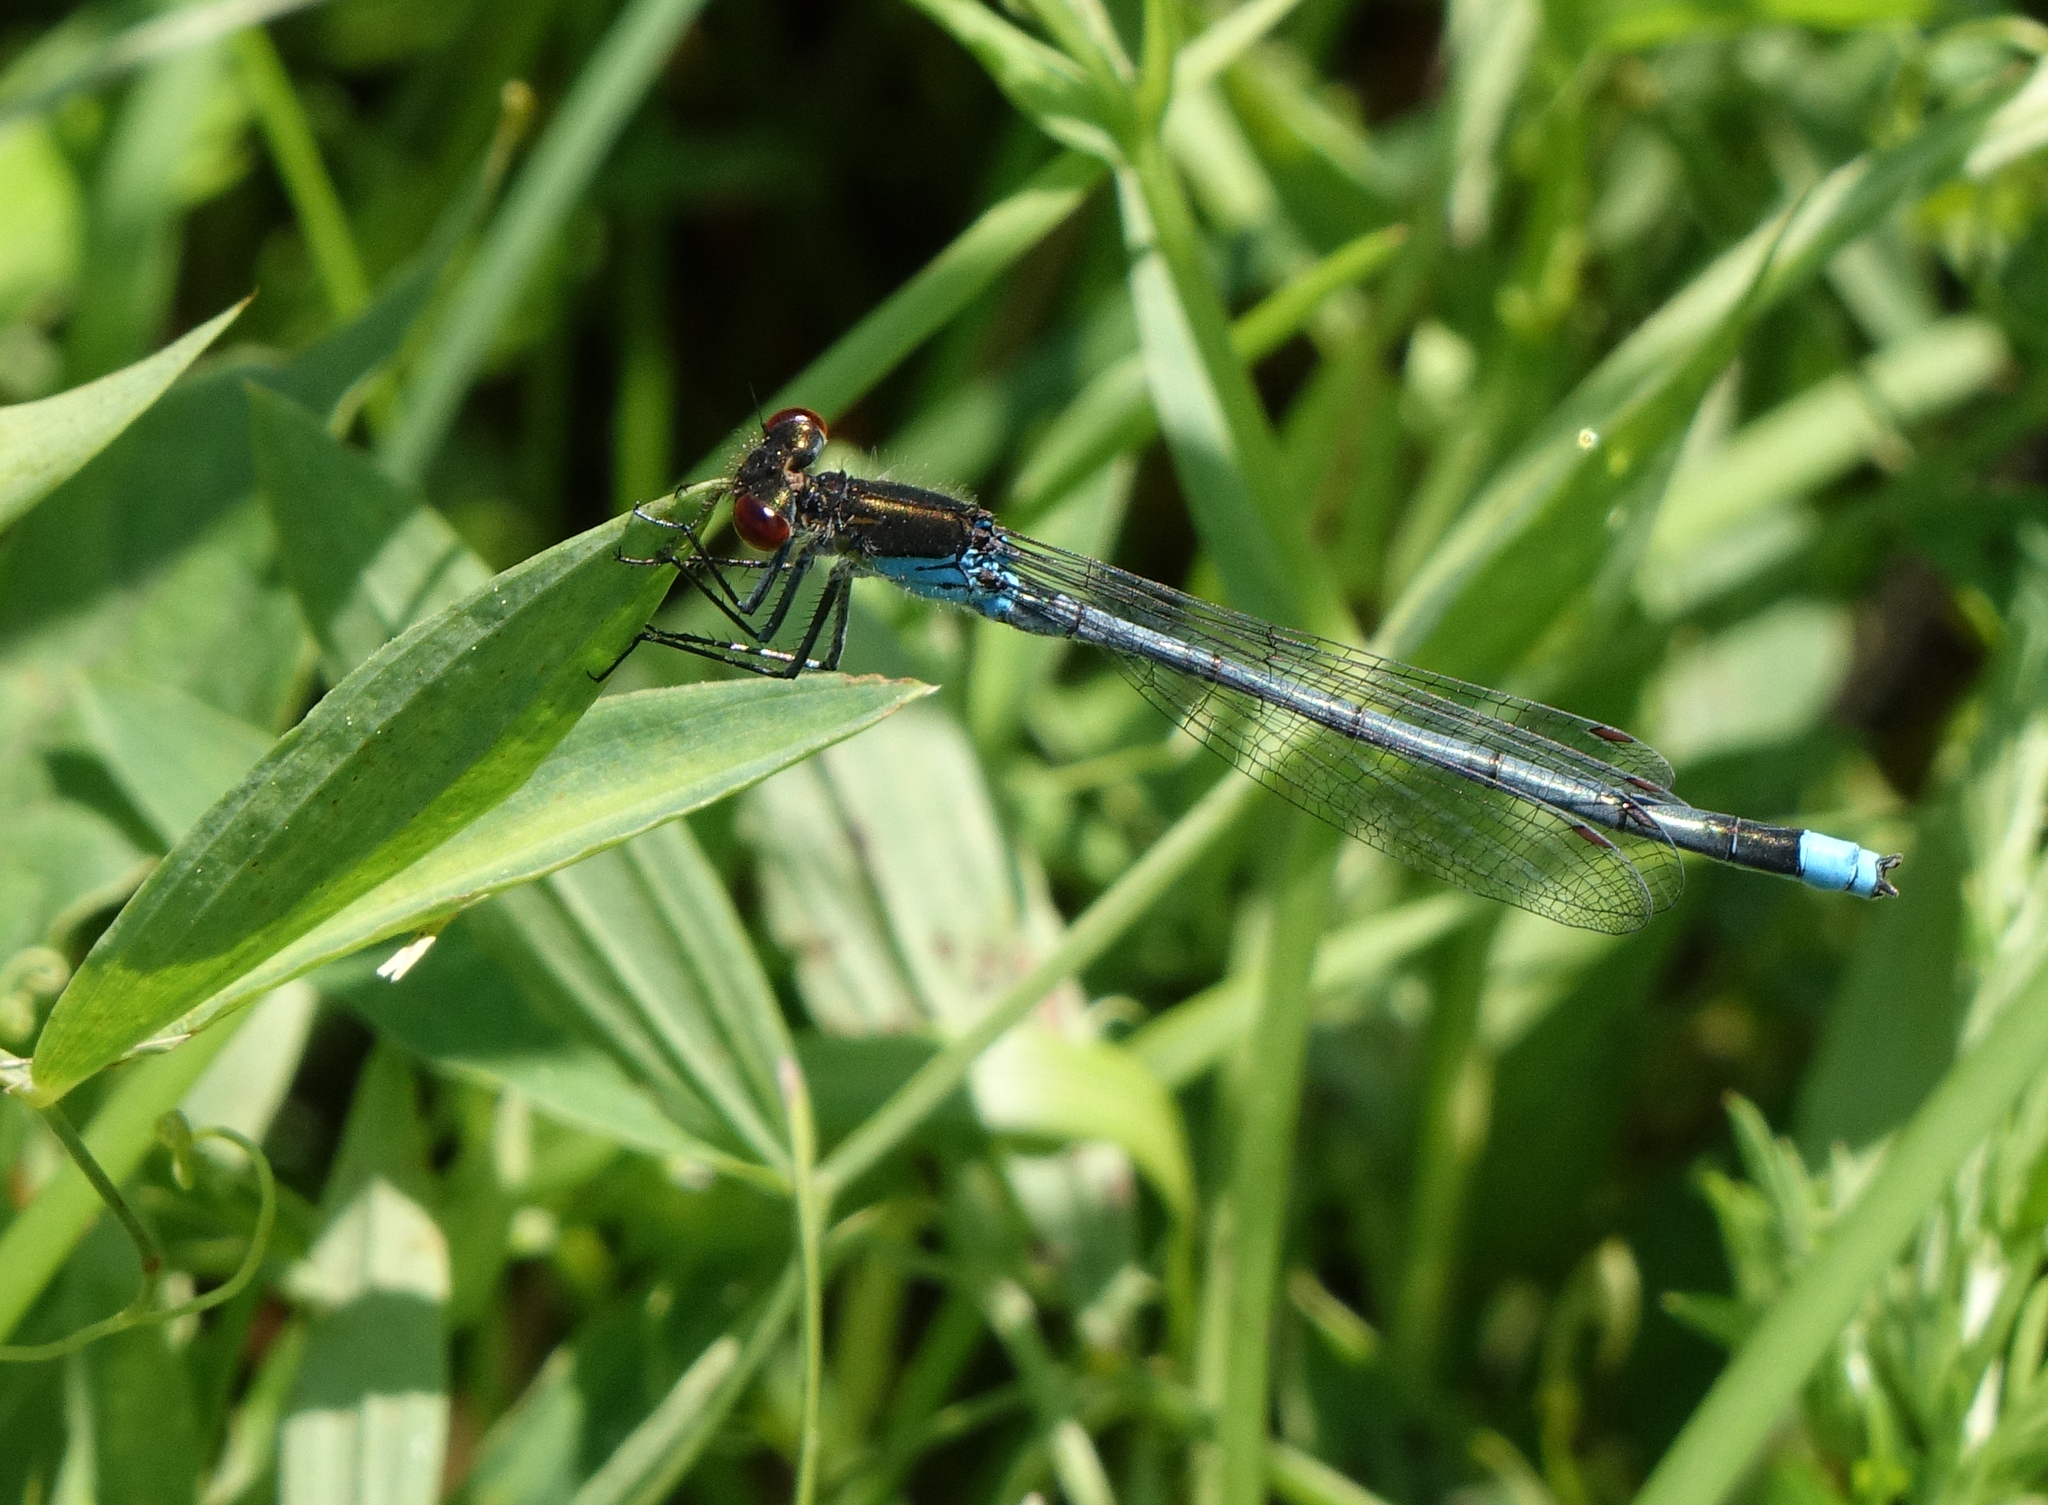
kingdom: Animalia
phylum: Arthropoda
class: Insecta
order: Odonata
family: Coenagrionidae
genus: Erythromma
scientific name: Erythromma najas
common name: Red-eyed damselfly
